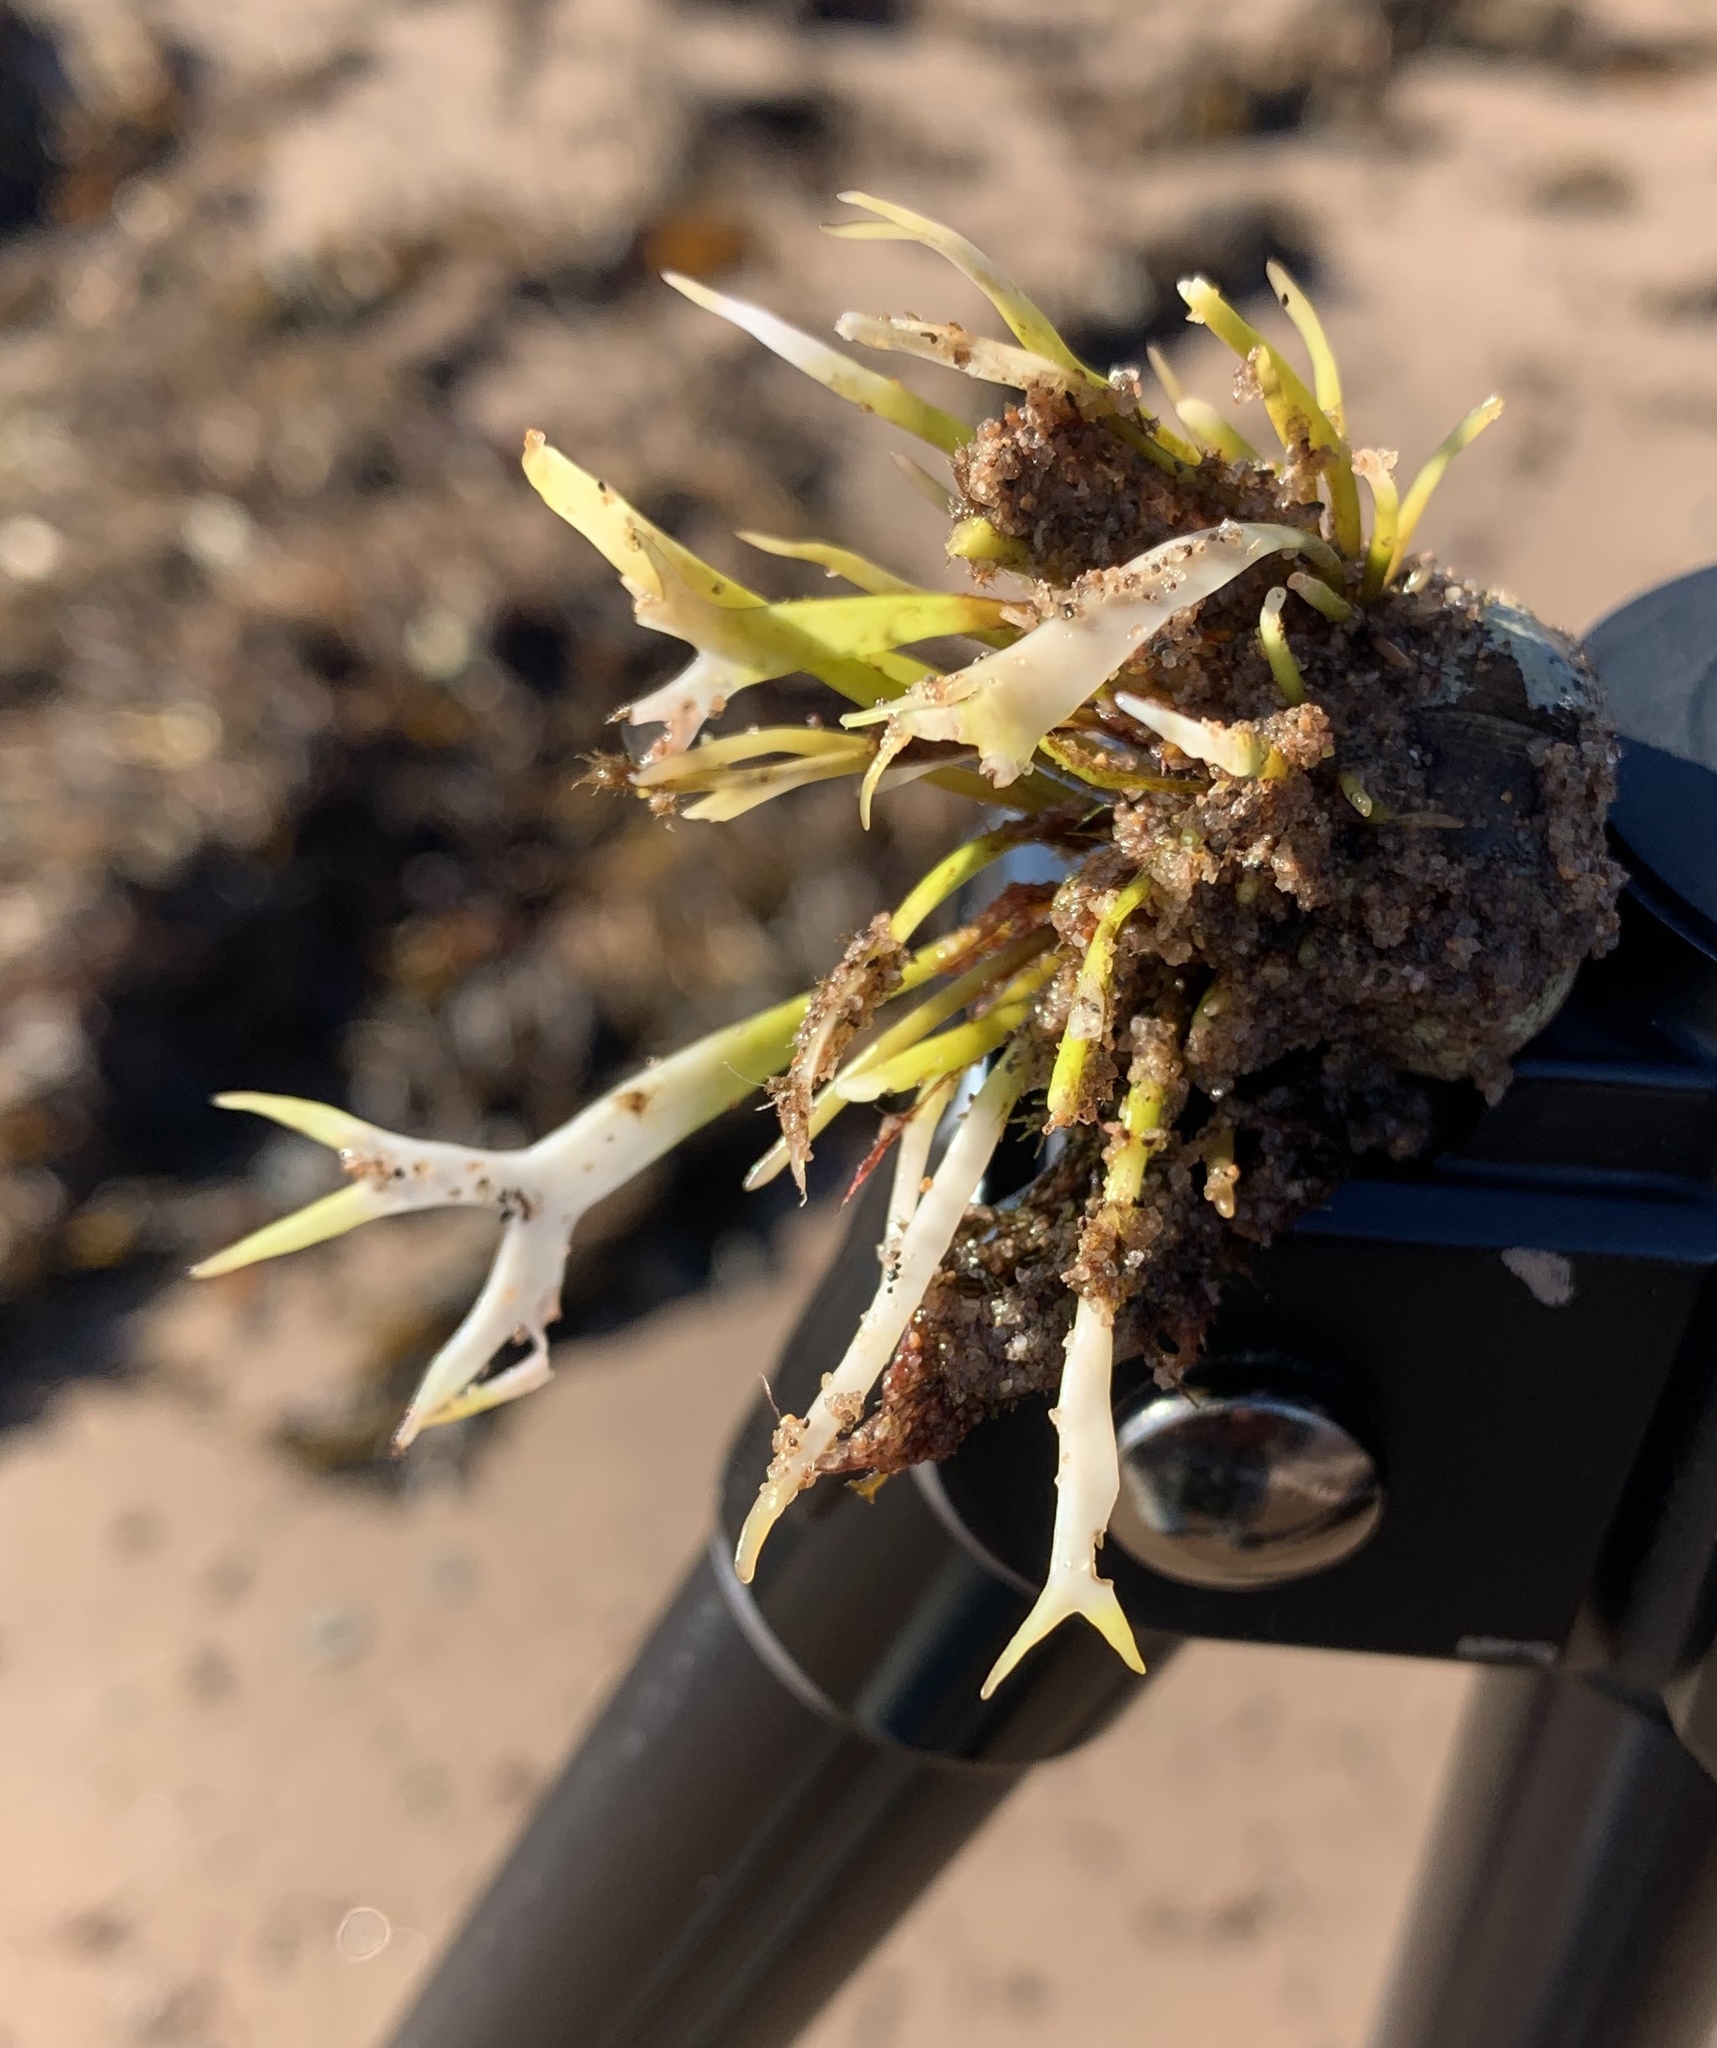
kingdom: Plantae
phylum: Rhodophyta
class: Florideophyceae
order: Gigartinales
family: Gigartinaceae
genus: Chondrus
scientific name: Chondrus crispus
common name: Carrageen
